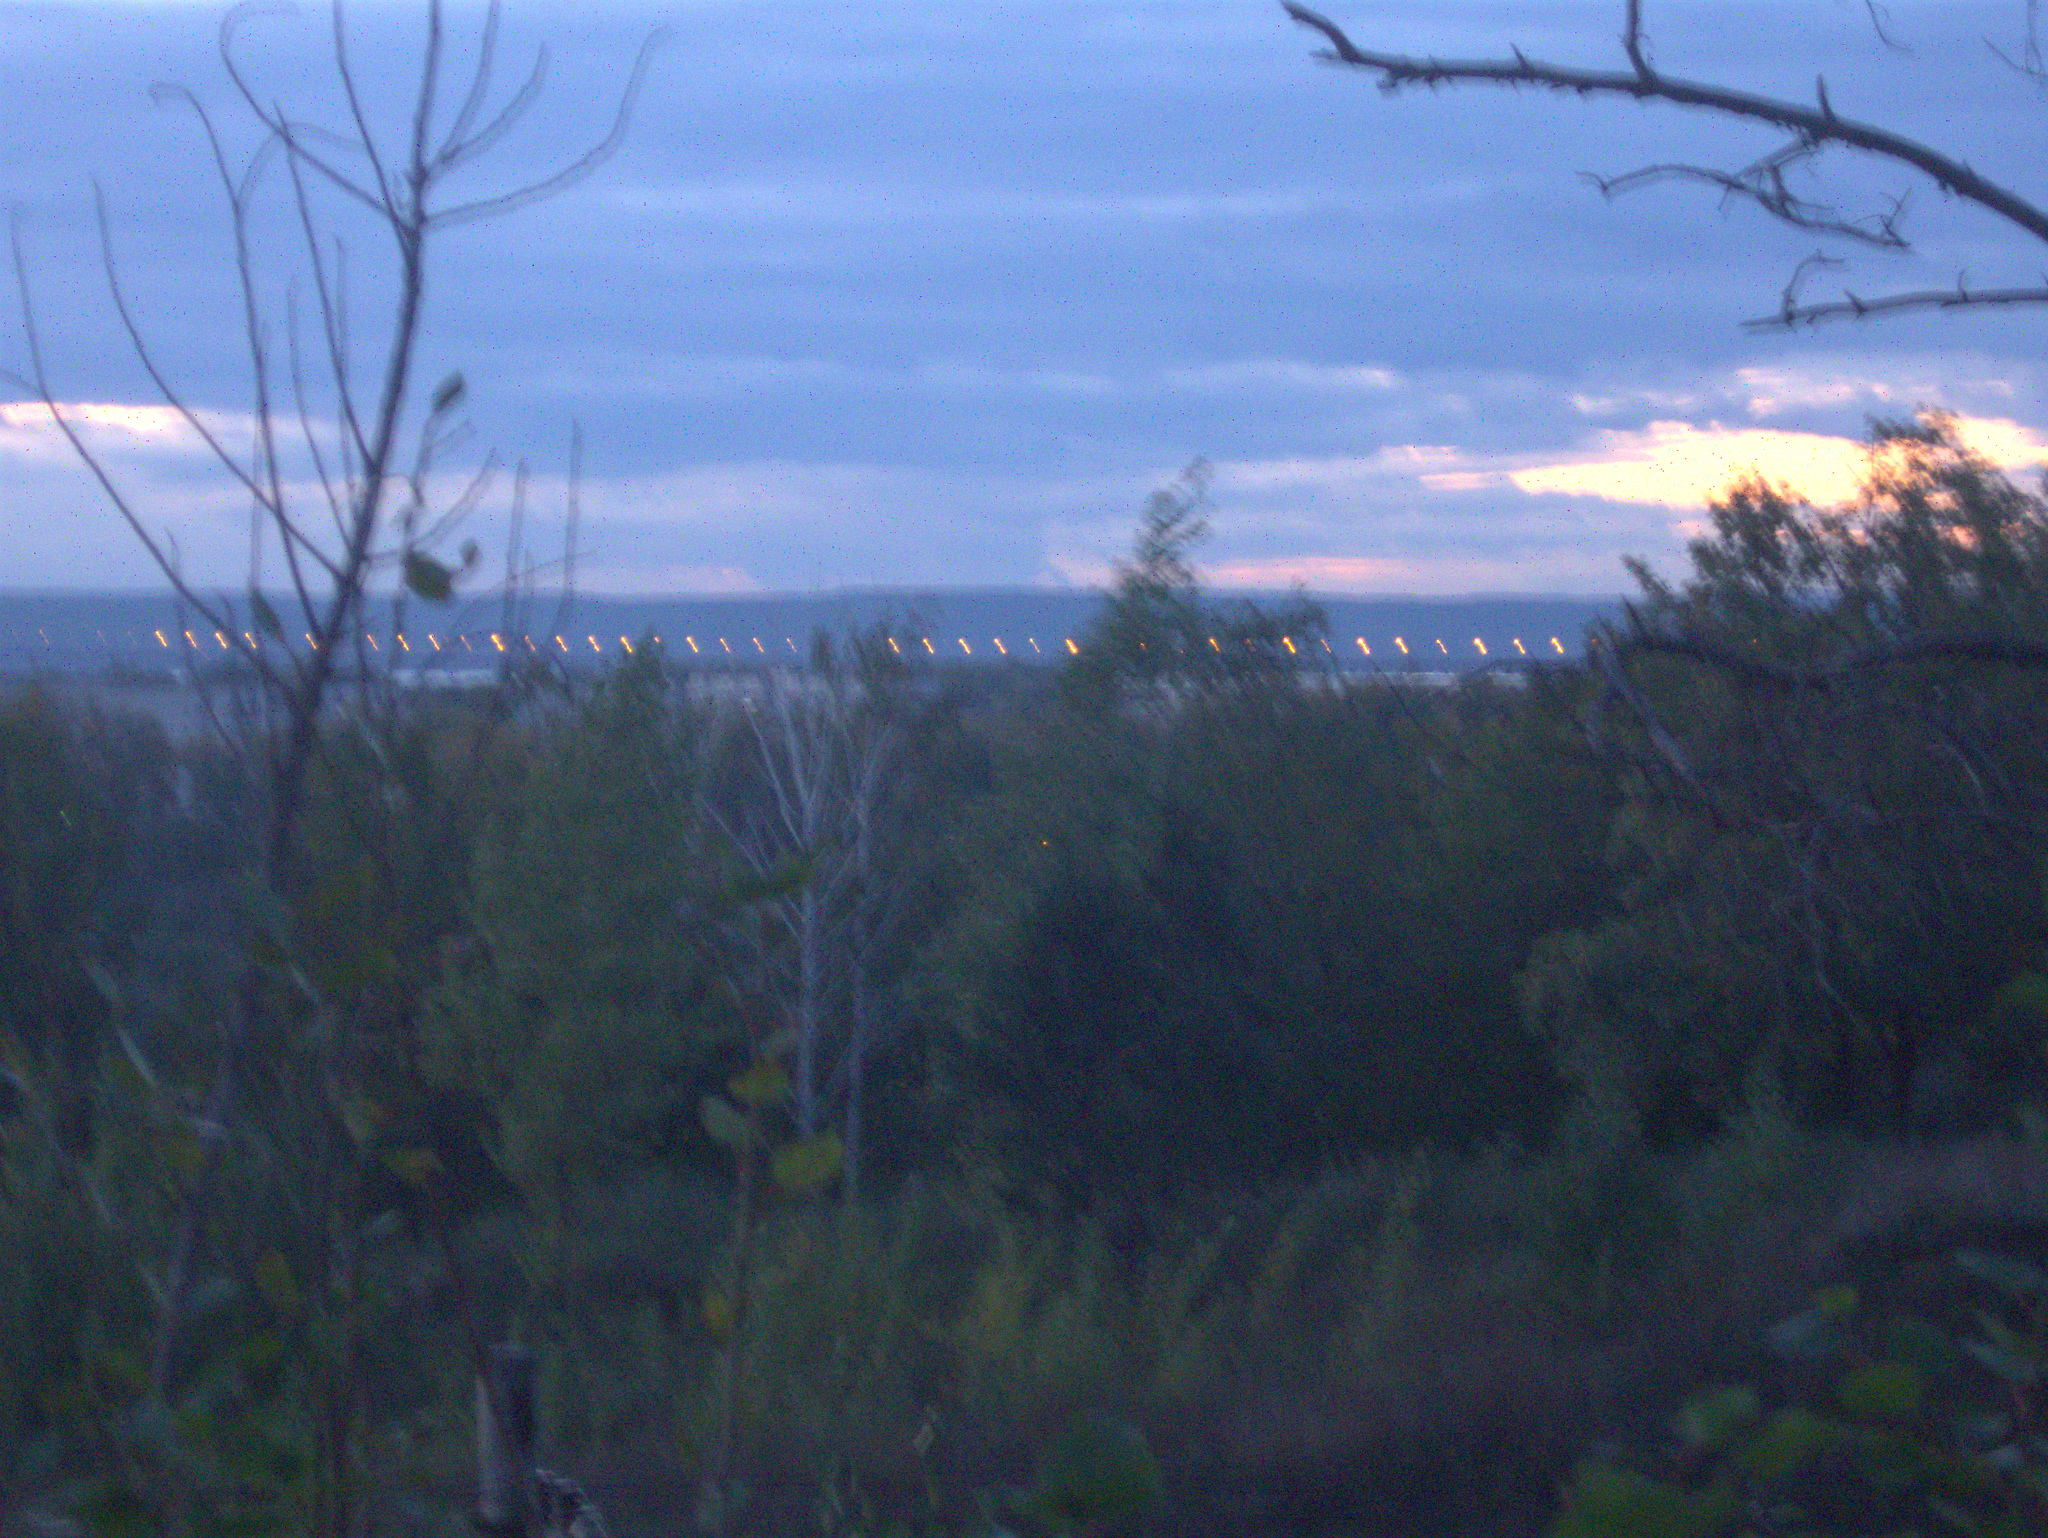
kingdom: Plantae
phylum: Tracheophyta
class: Magnoliopsida
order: Fagales
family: Betulaceae
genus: Betula
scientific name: Betula pendula
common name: Silver birch
